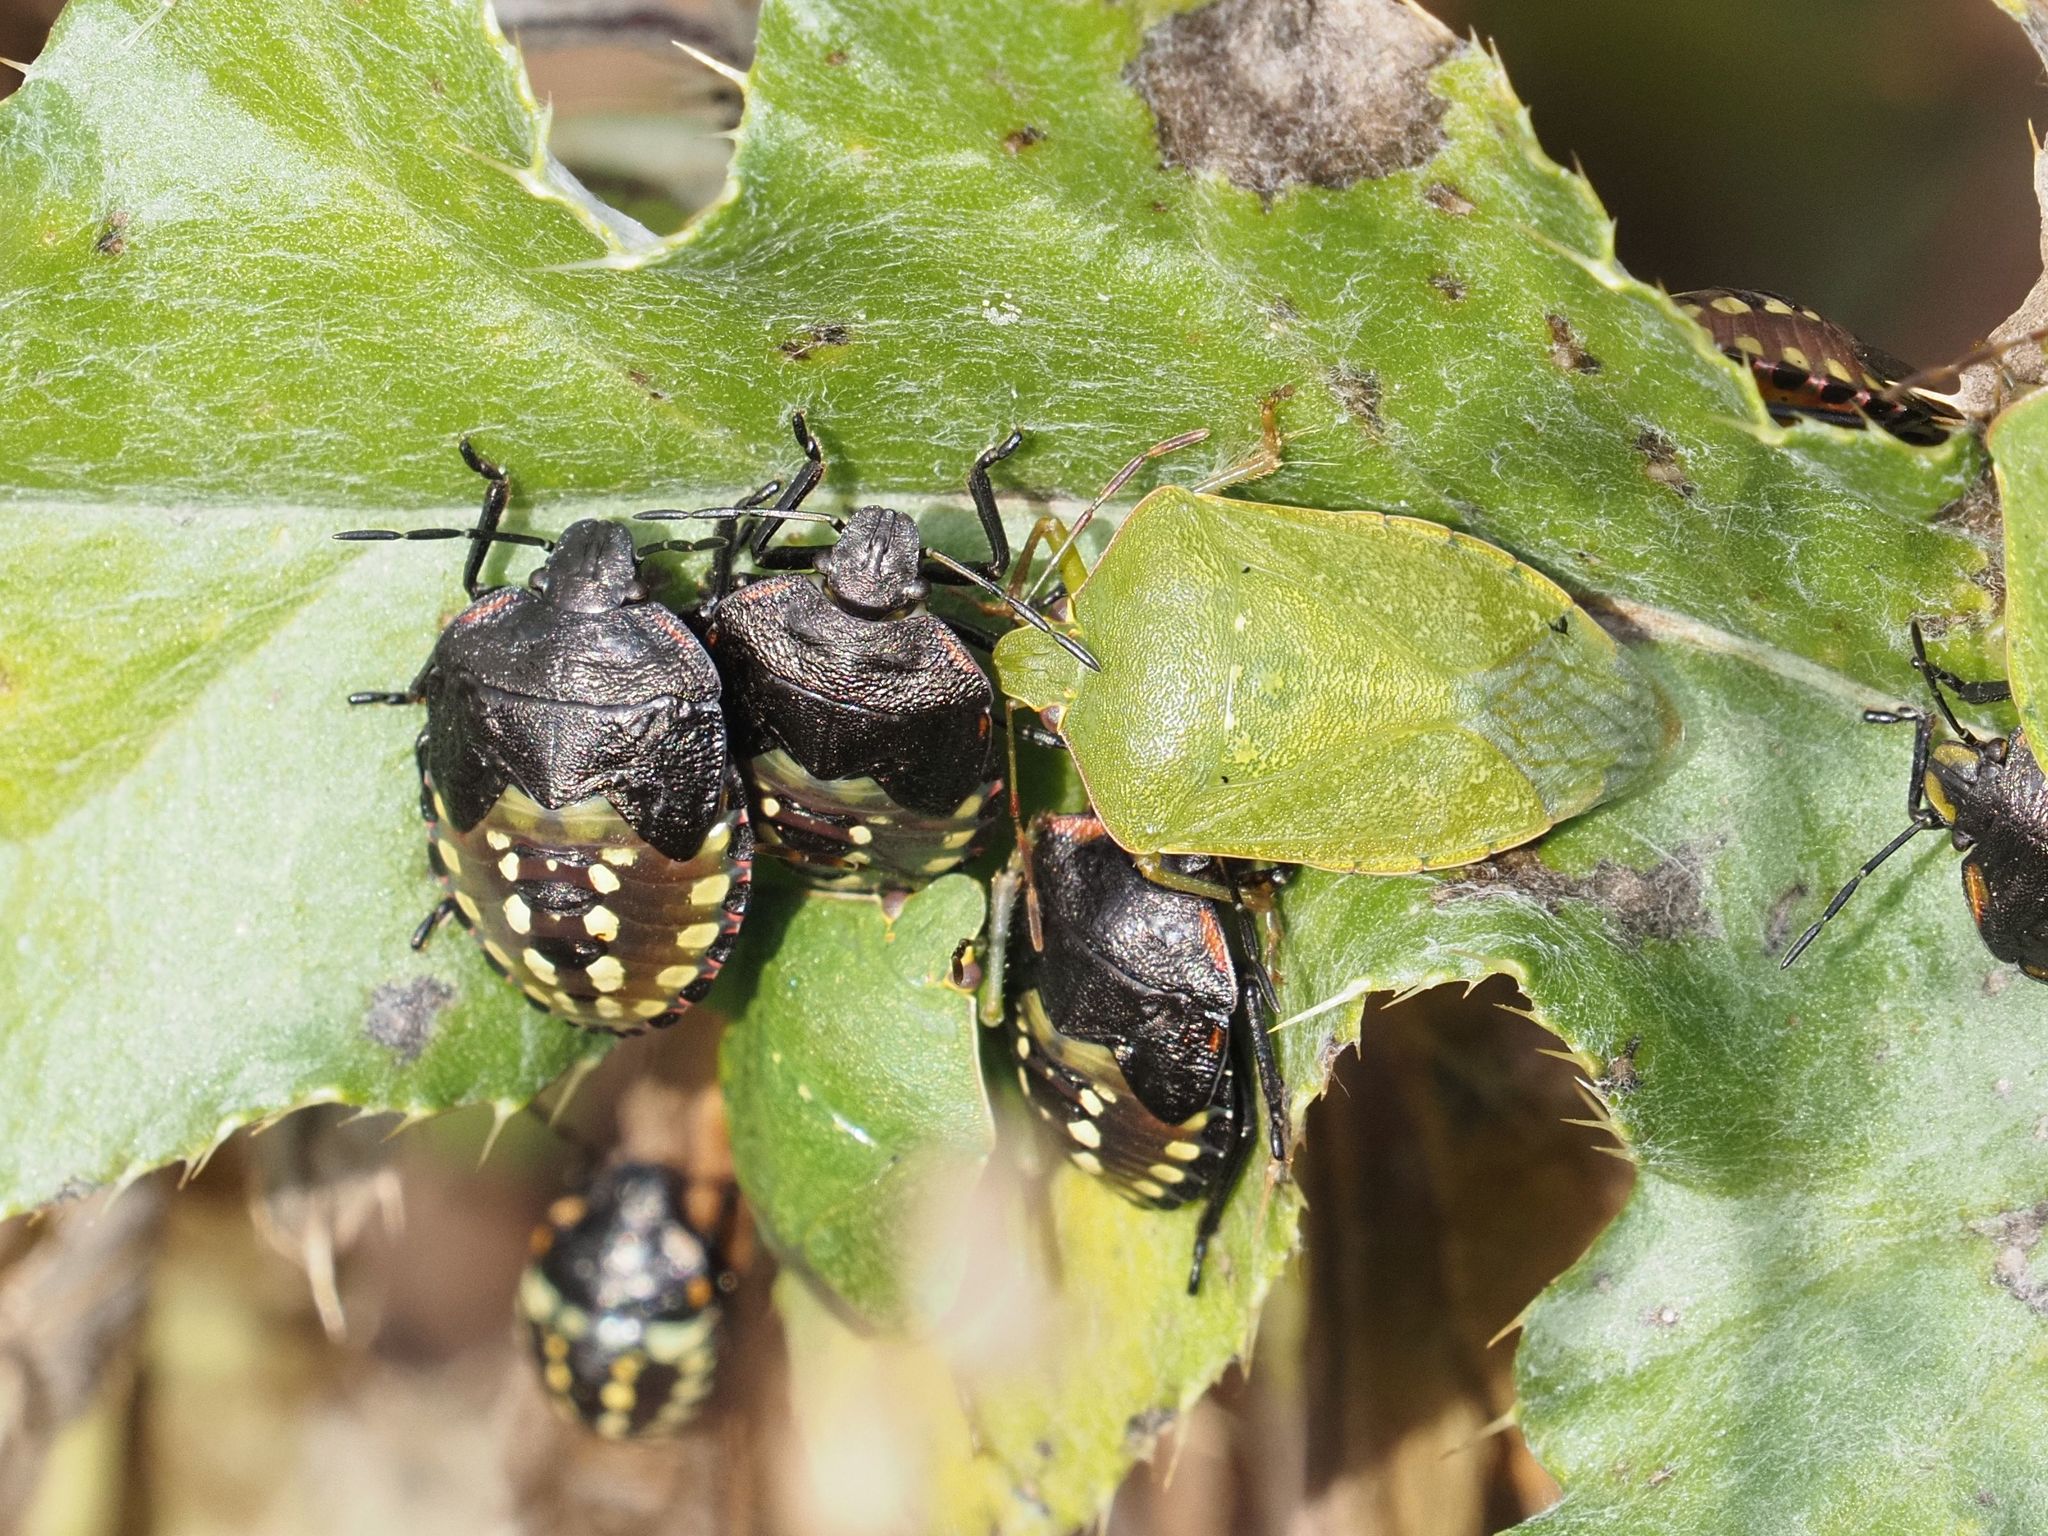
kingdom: Animalia
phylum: Arthropoda
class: Insecta
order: Hemiptera
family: Pentatomidae
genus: Nezara
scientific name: Nezara viridula
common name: Southern green stink bug
